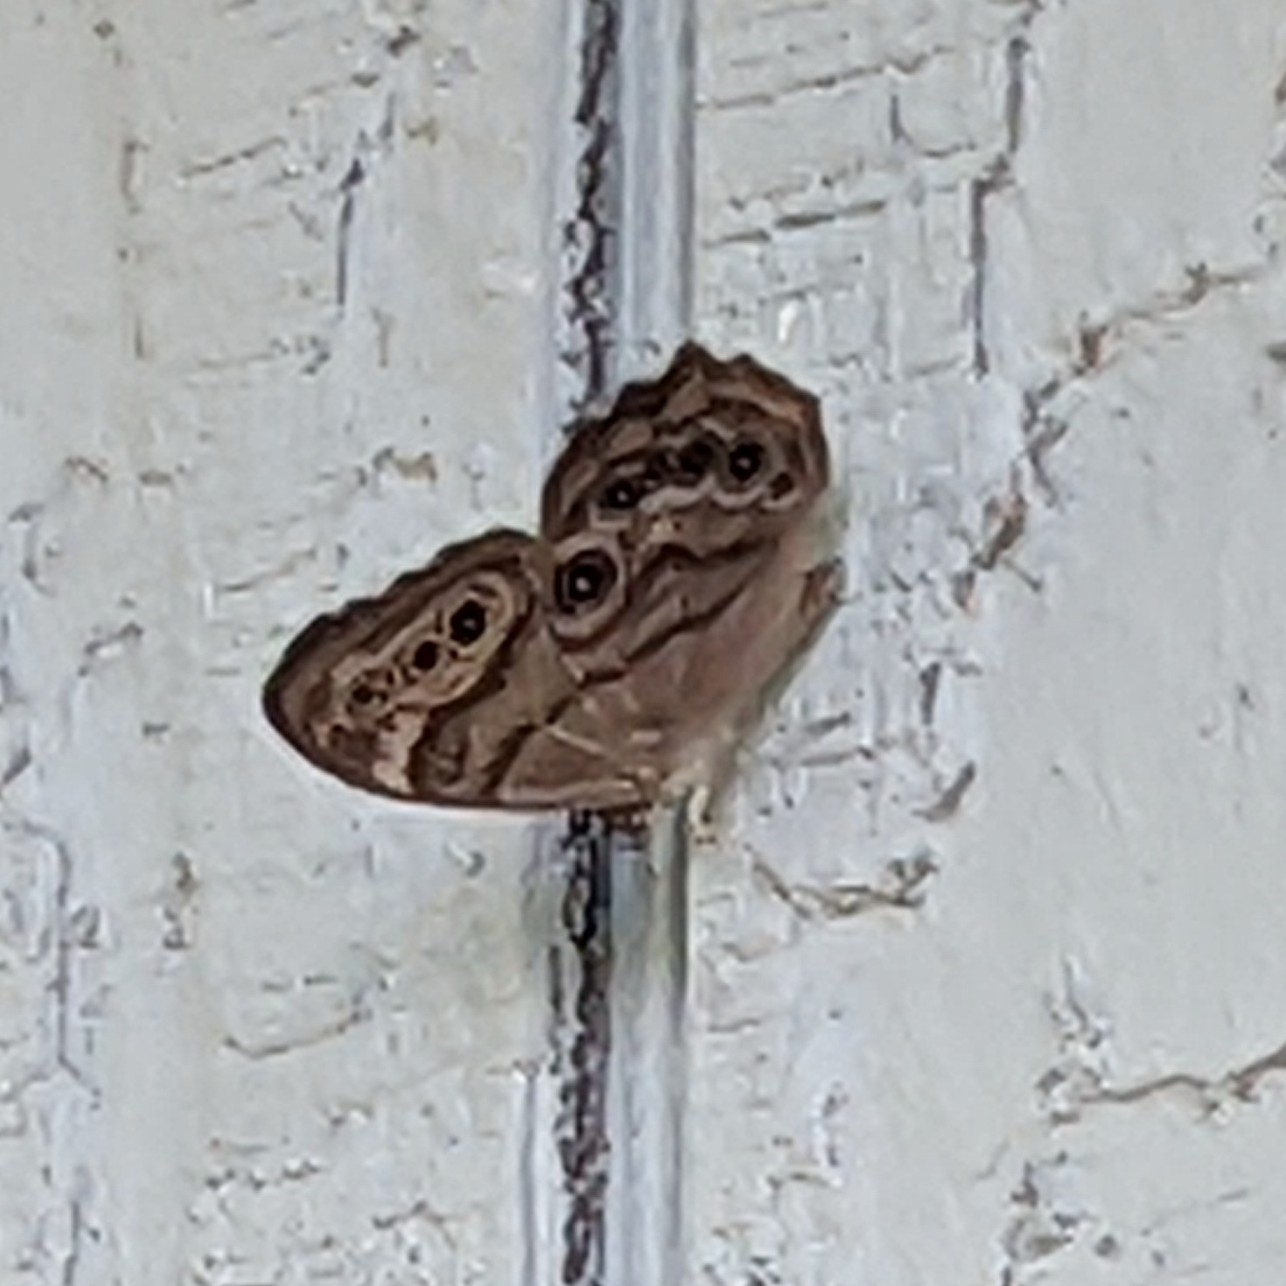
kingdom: Animalia
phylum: Arthropoda
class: Insecta
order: Lepidoptera
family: Nymphalidae
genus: Lethe
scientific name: Lethe anthedon
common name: Northern pearly-eye
